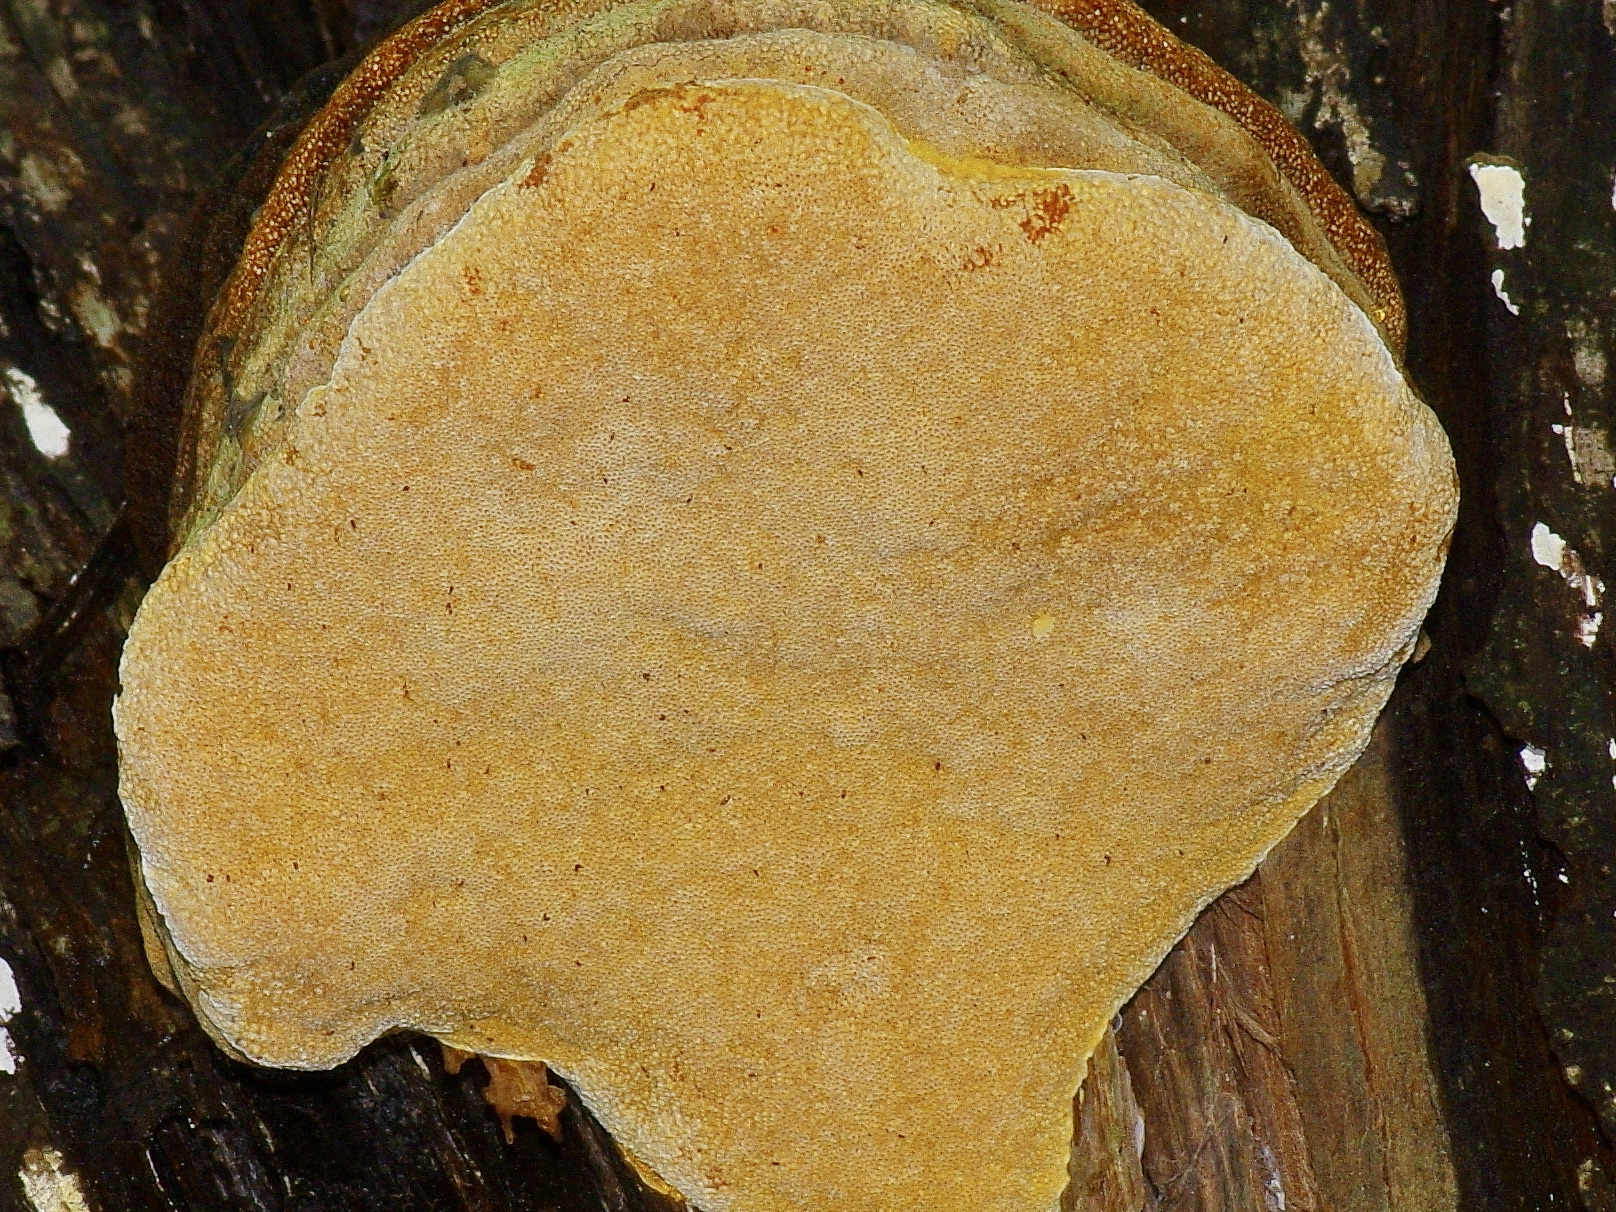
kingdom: Fungi
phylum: Basidiomycota
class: Agaricomycetes
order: Polyporales
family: Polyporaceae
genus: Pyrofomes
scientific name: Pyrofomes juniperinus
